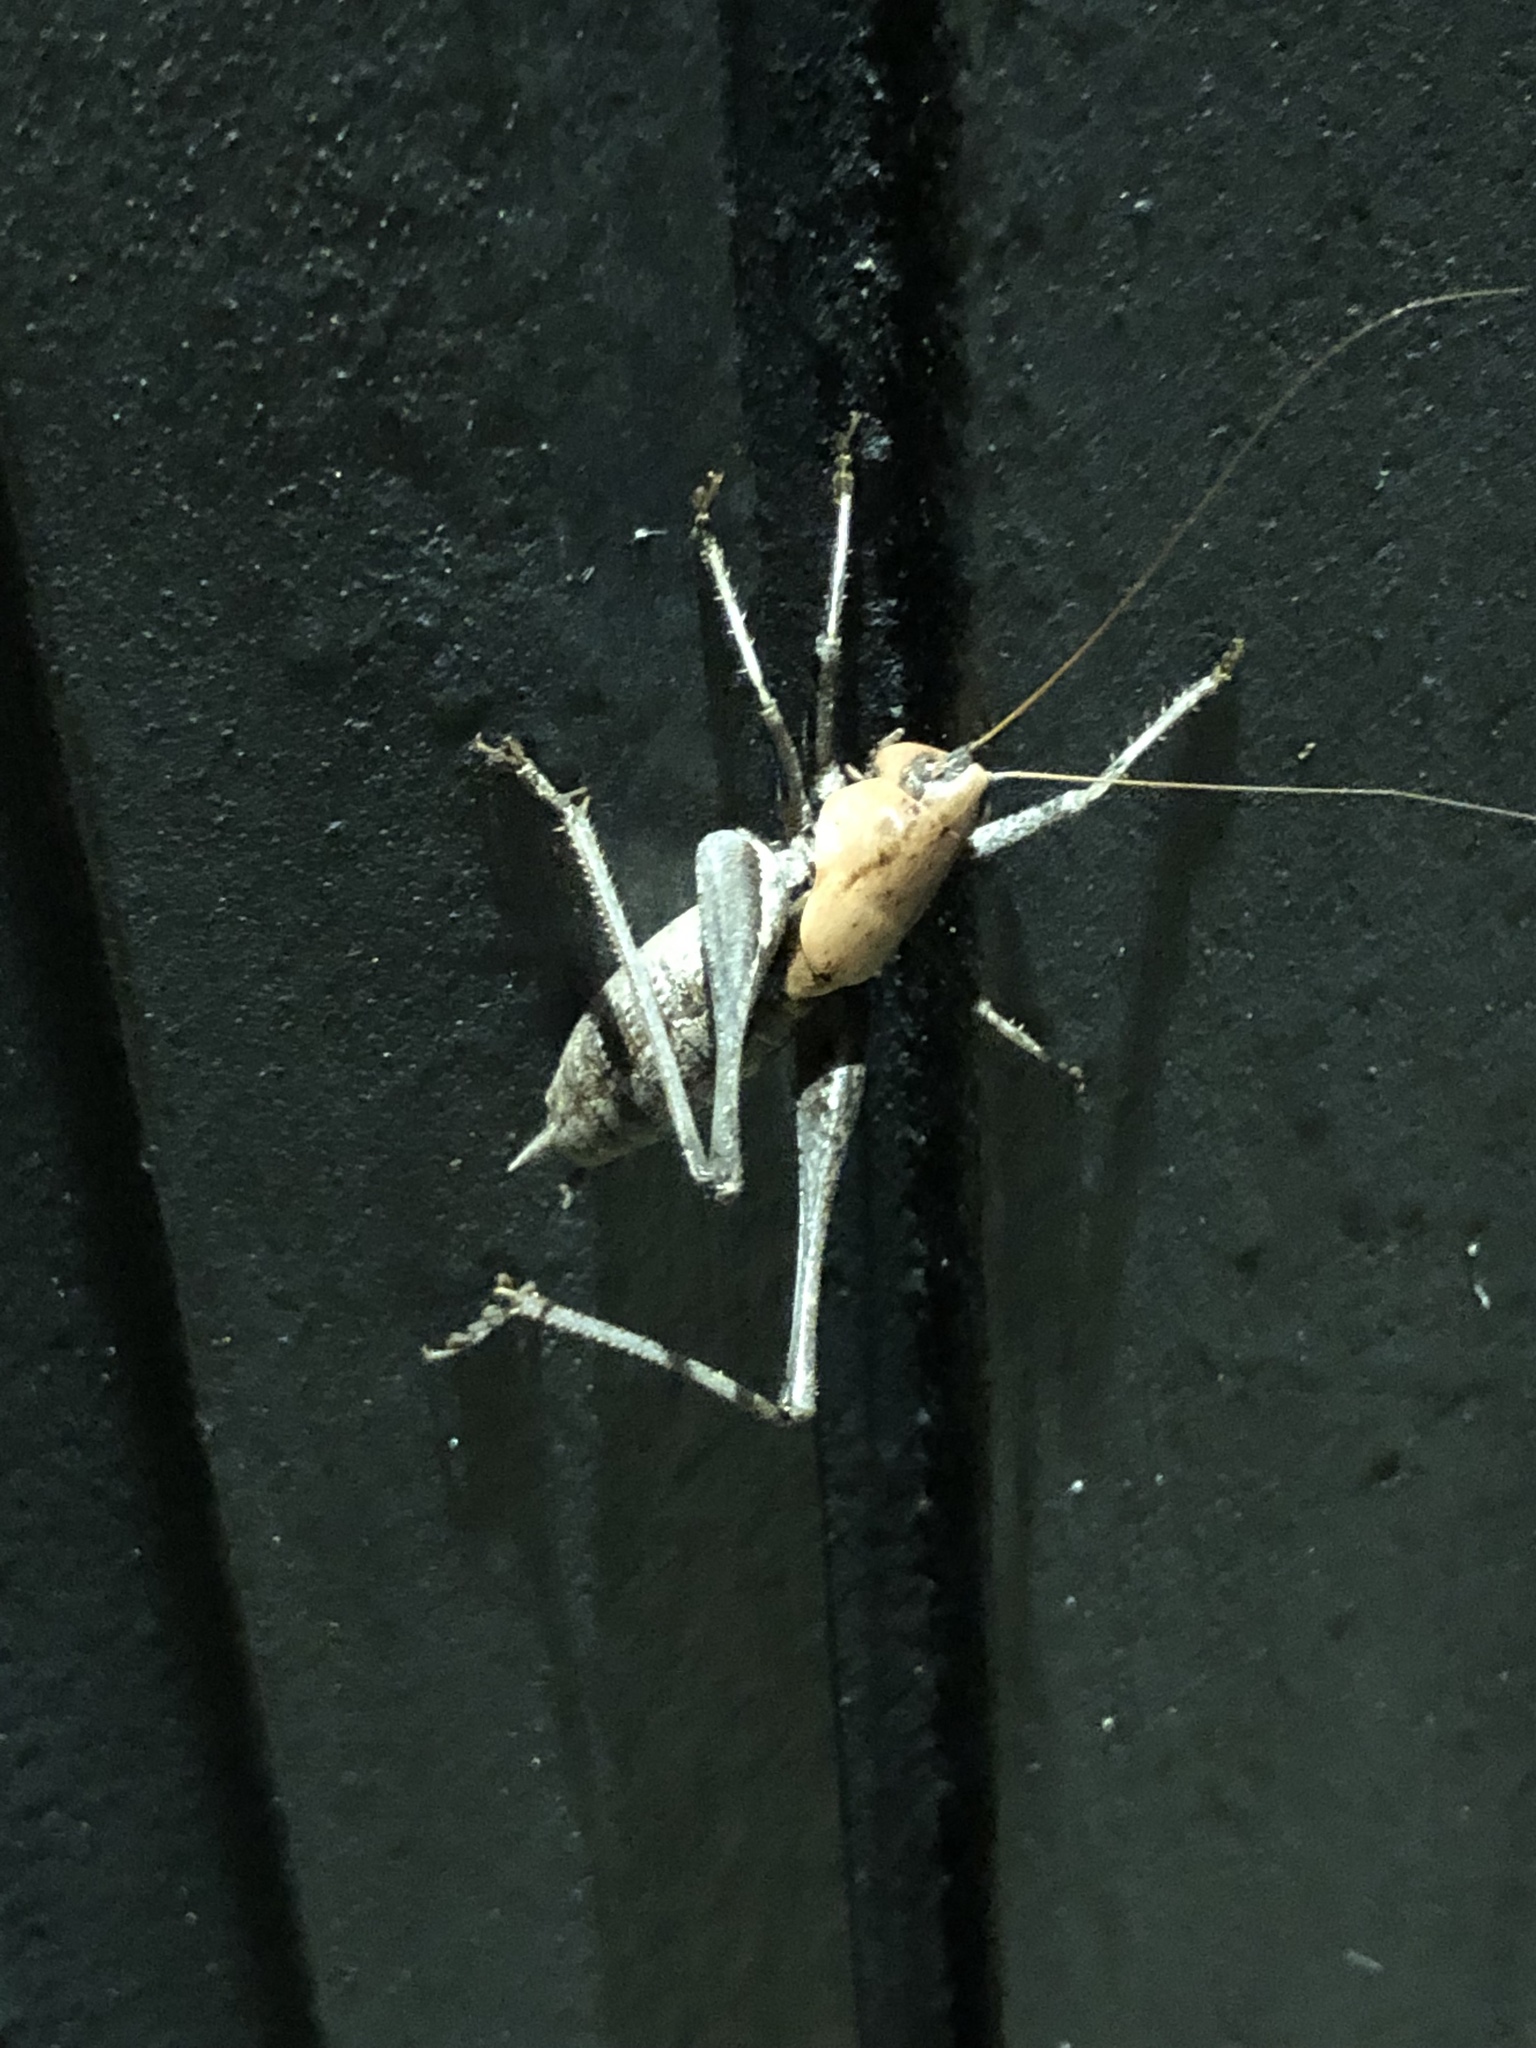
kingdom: Animalia
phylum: Arthropoda
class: Insecta
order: Orthoptera
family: Tettigoniidae
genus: Thyreonotus
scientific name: Thyreonotus corsicus
